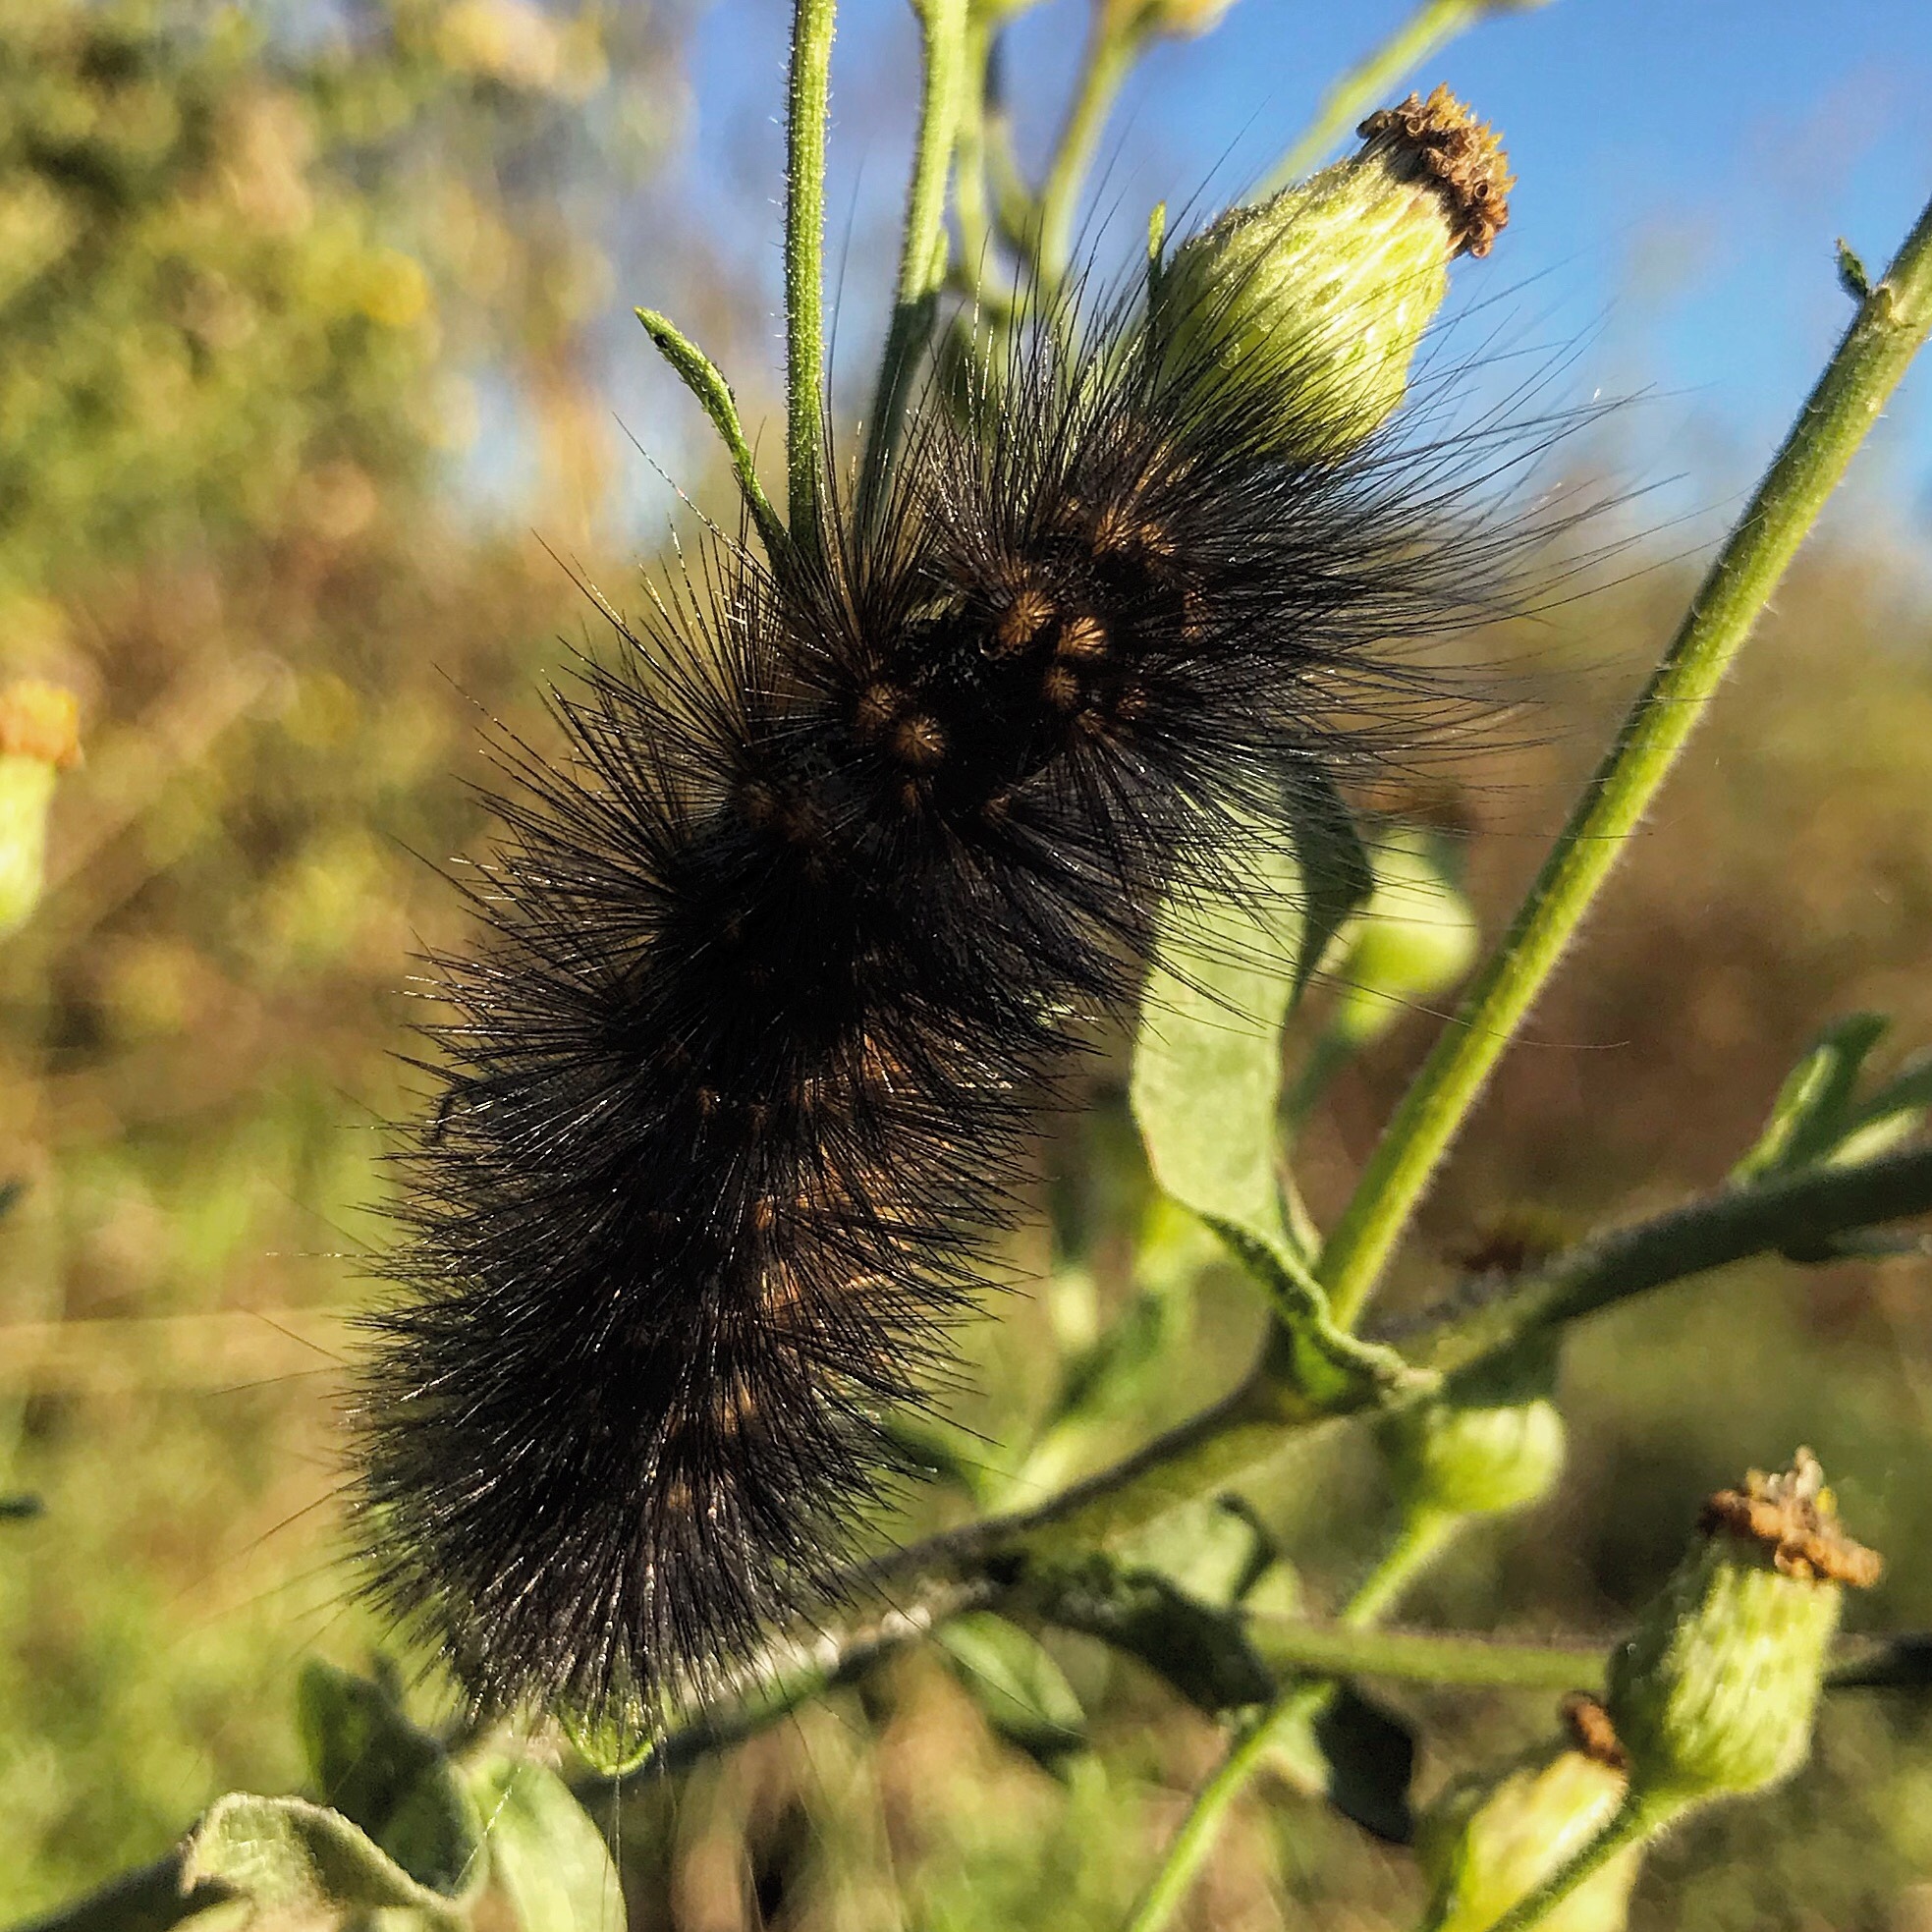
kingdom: Animalia
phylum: Arthropoda
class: Insecta
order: Lepidoptera
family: Erebidae
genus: Estigmene
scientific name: Estigmene acrea
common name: Salt marsh moth
